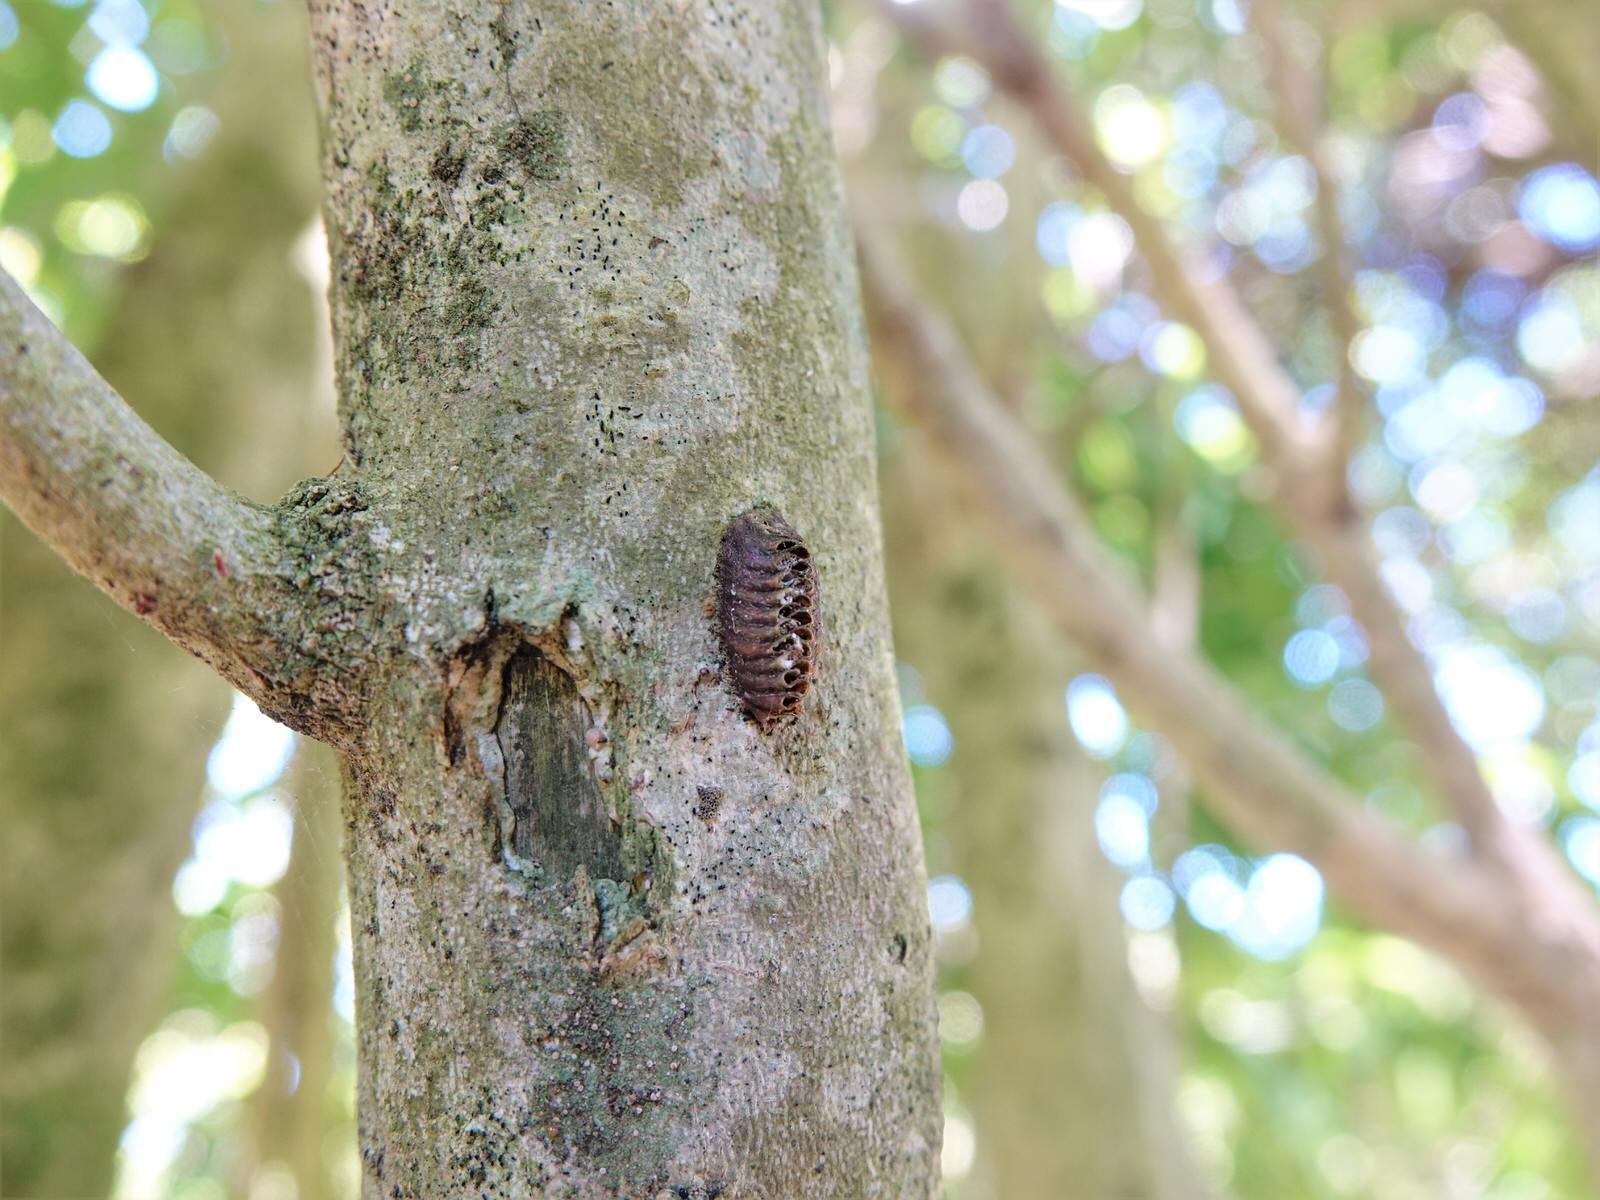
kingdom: Animalia
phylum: Arthropoda
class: Insecta
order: Mantodea
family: Mantidae
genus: Orthodera
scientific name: Orthodera novaezealandiae
